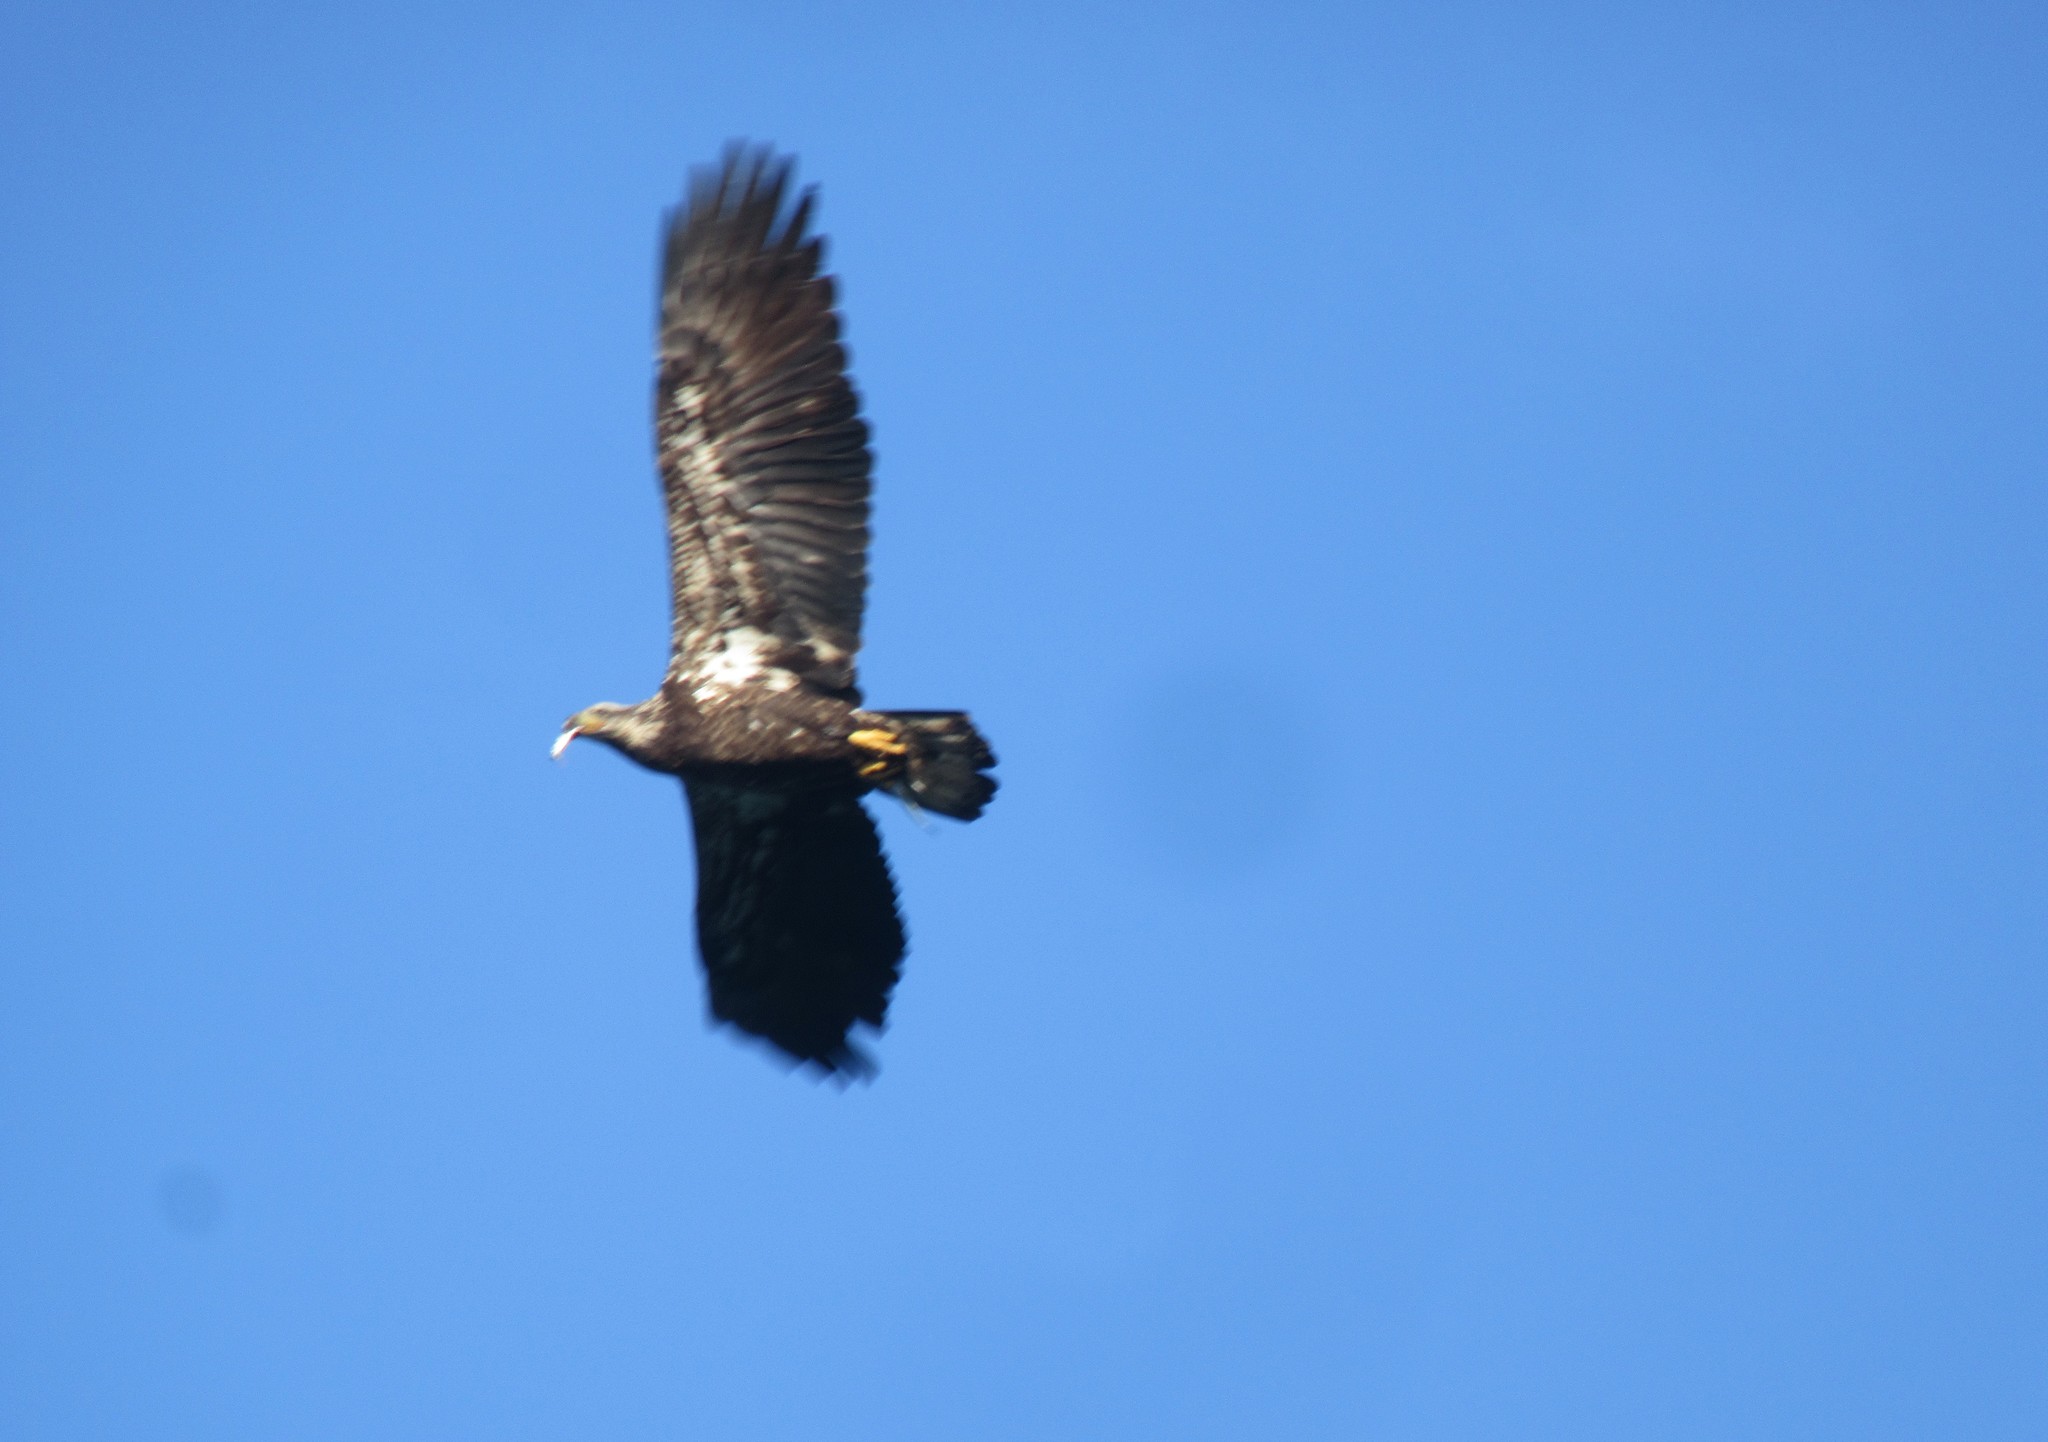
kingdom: Animalia
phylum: Chordata
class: Aves
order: Accipitriformes
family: Accipitridae
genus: Haliaeetus
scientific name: Haliaeetus leucocephalus
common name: Bald eagle
